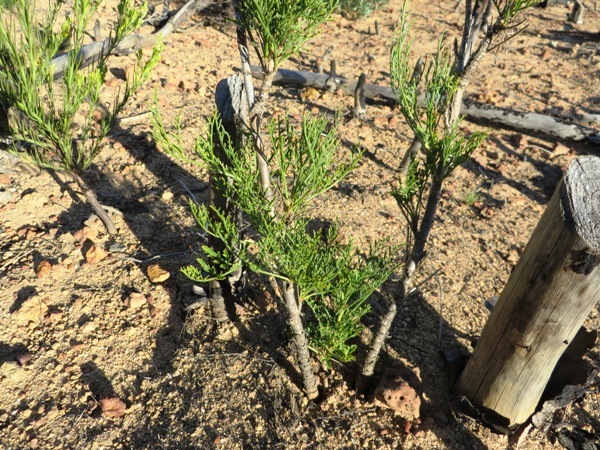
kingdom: Plantae
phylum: Tracheophyta
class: Magnoliopsida
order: Apiales
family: Apiaceae
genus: Glia
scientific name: Glia prolifera
